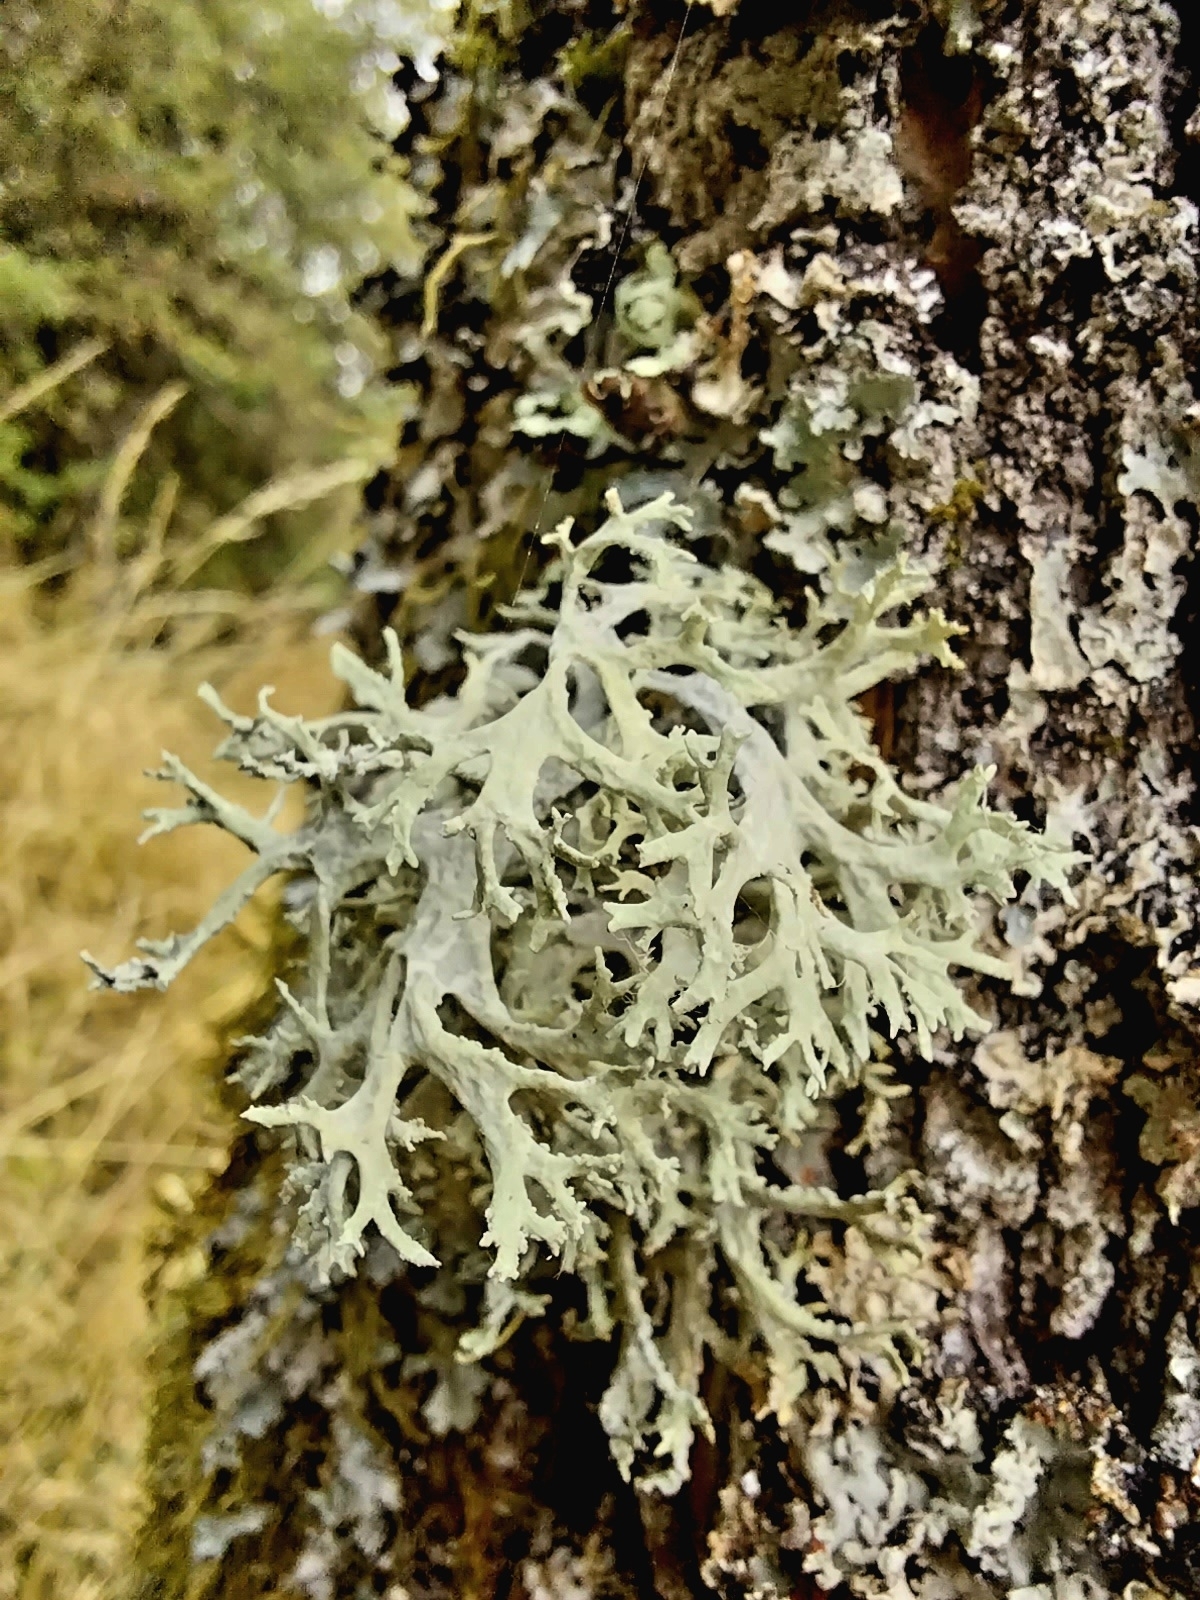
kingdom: Fungi
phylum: Ascomycota
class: Lecanoromycetes
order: Lecanorales
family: Parmeliaceae
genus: Evernia
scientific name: Evernia prunastri
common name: Oak moss
